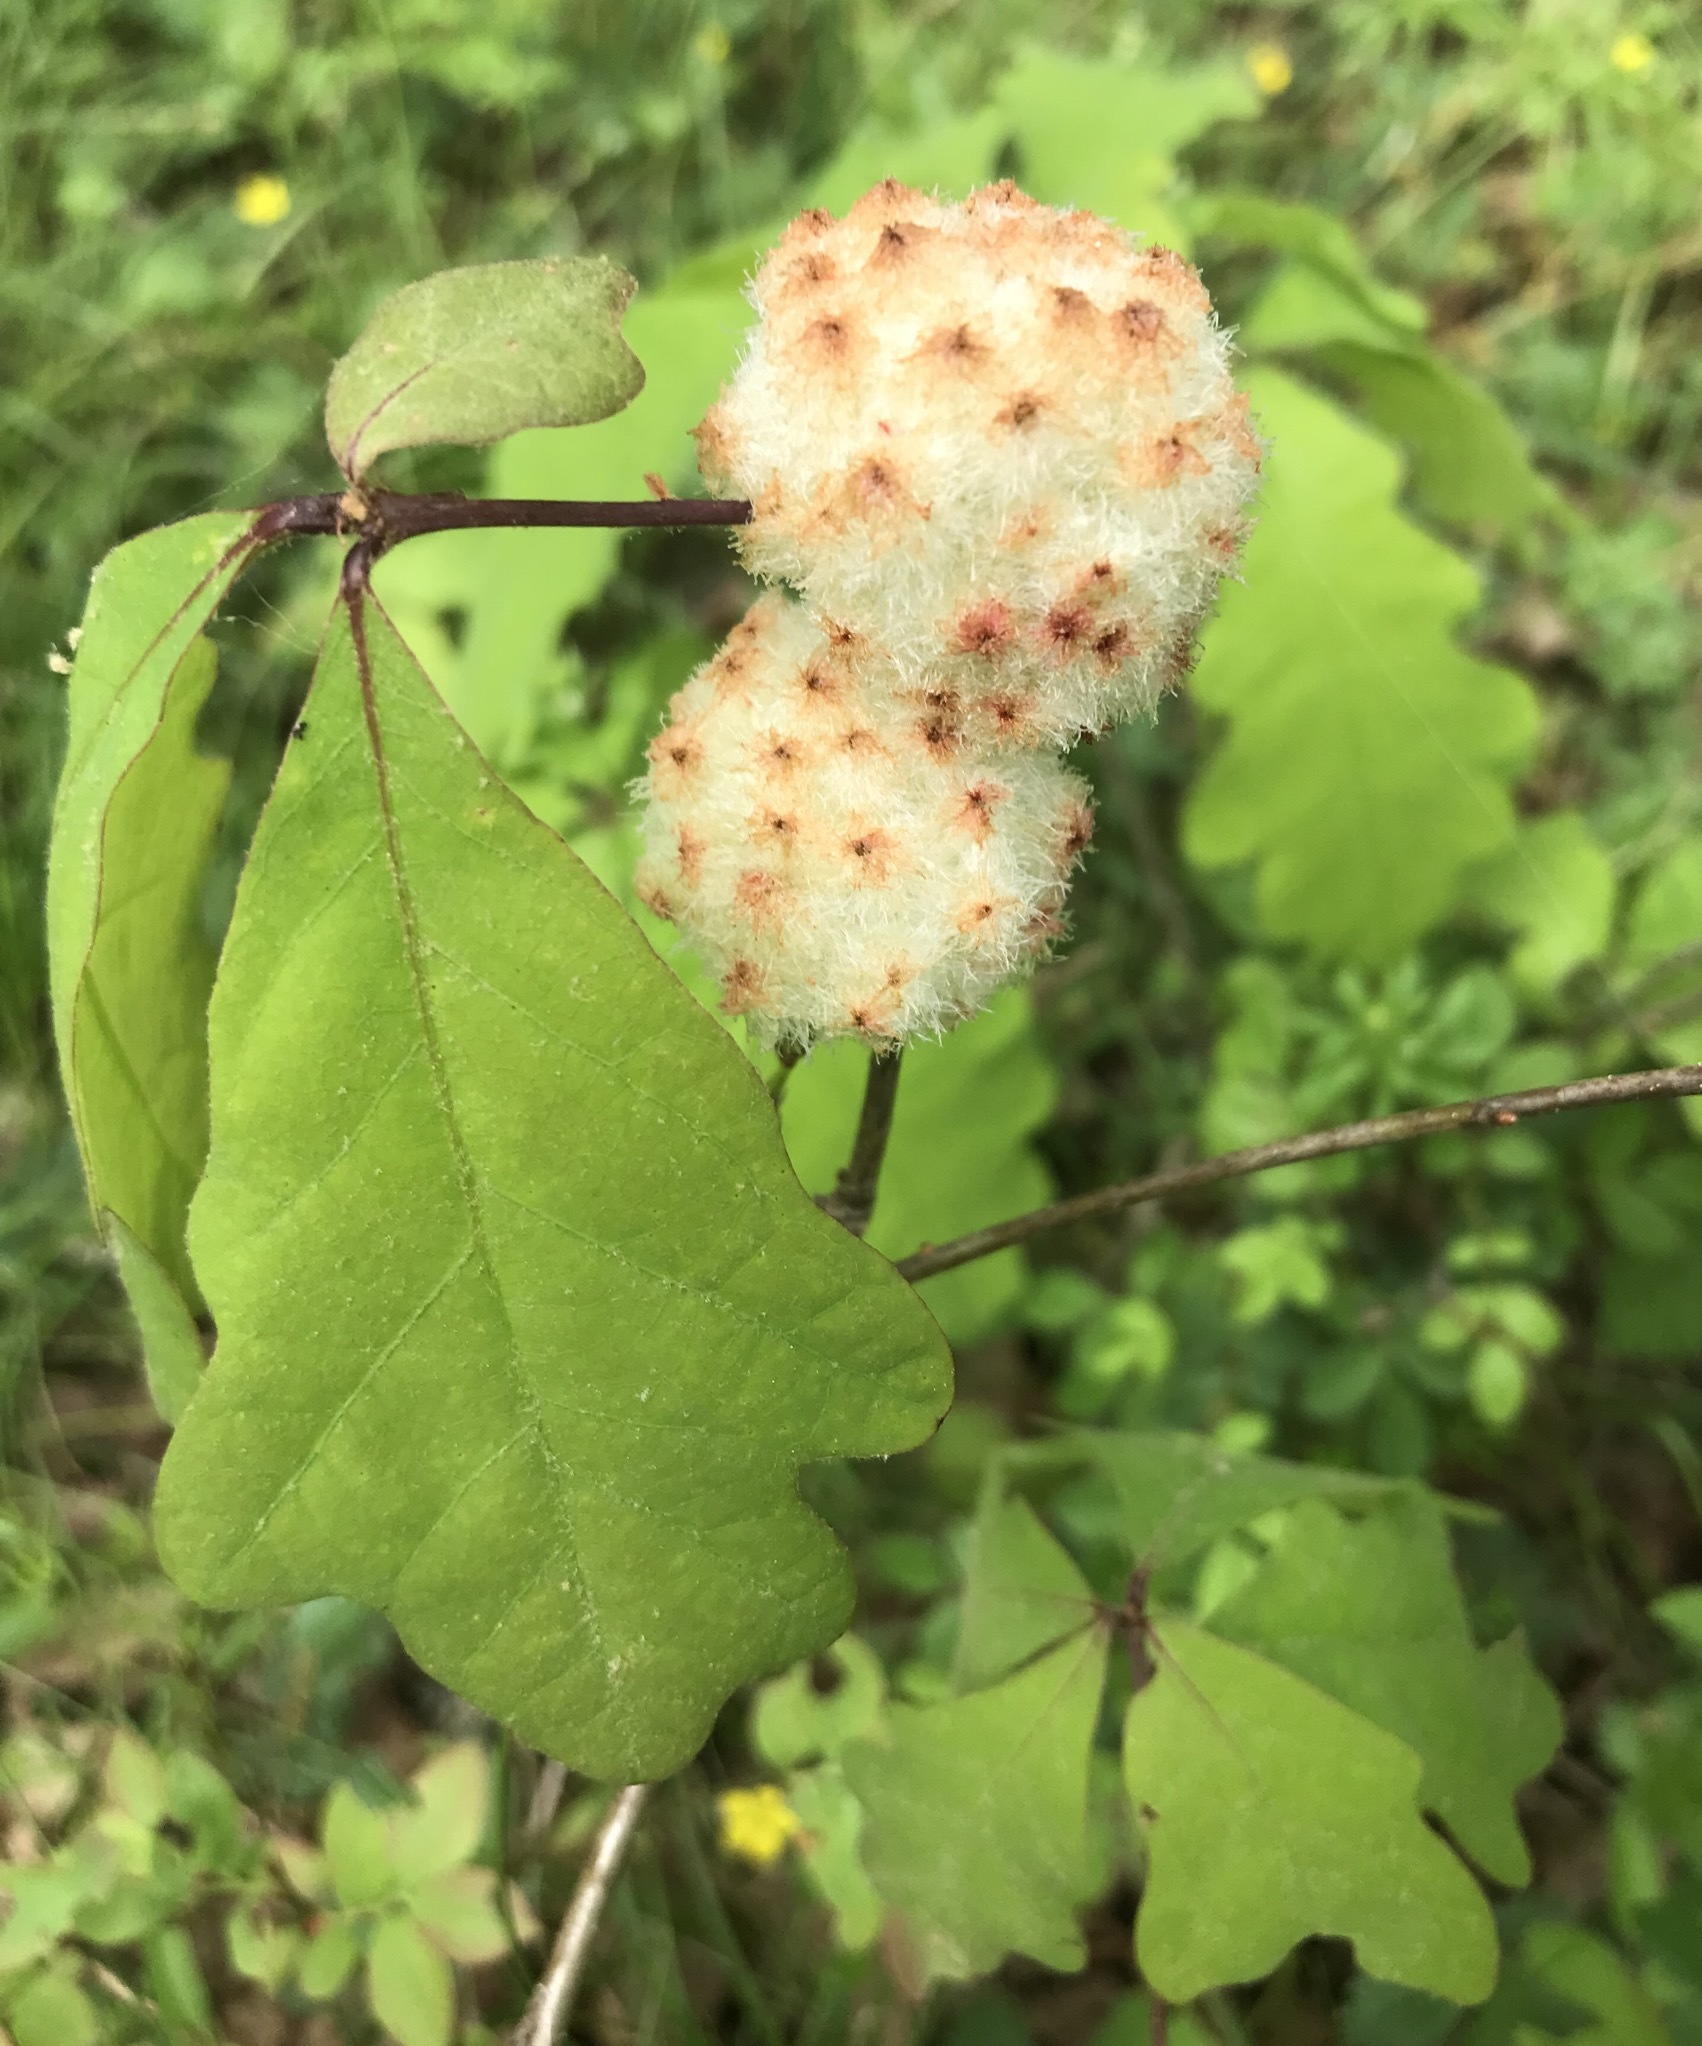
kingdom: Animalia
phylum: Arthropoda
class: Insecta
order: Hymenoptera
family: Cynipidae
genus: Callirhytis
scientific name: Callirhytis
